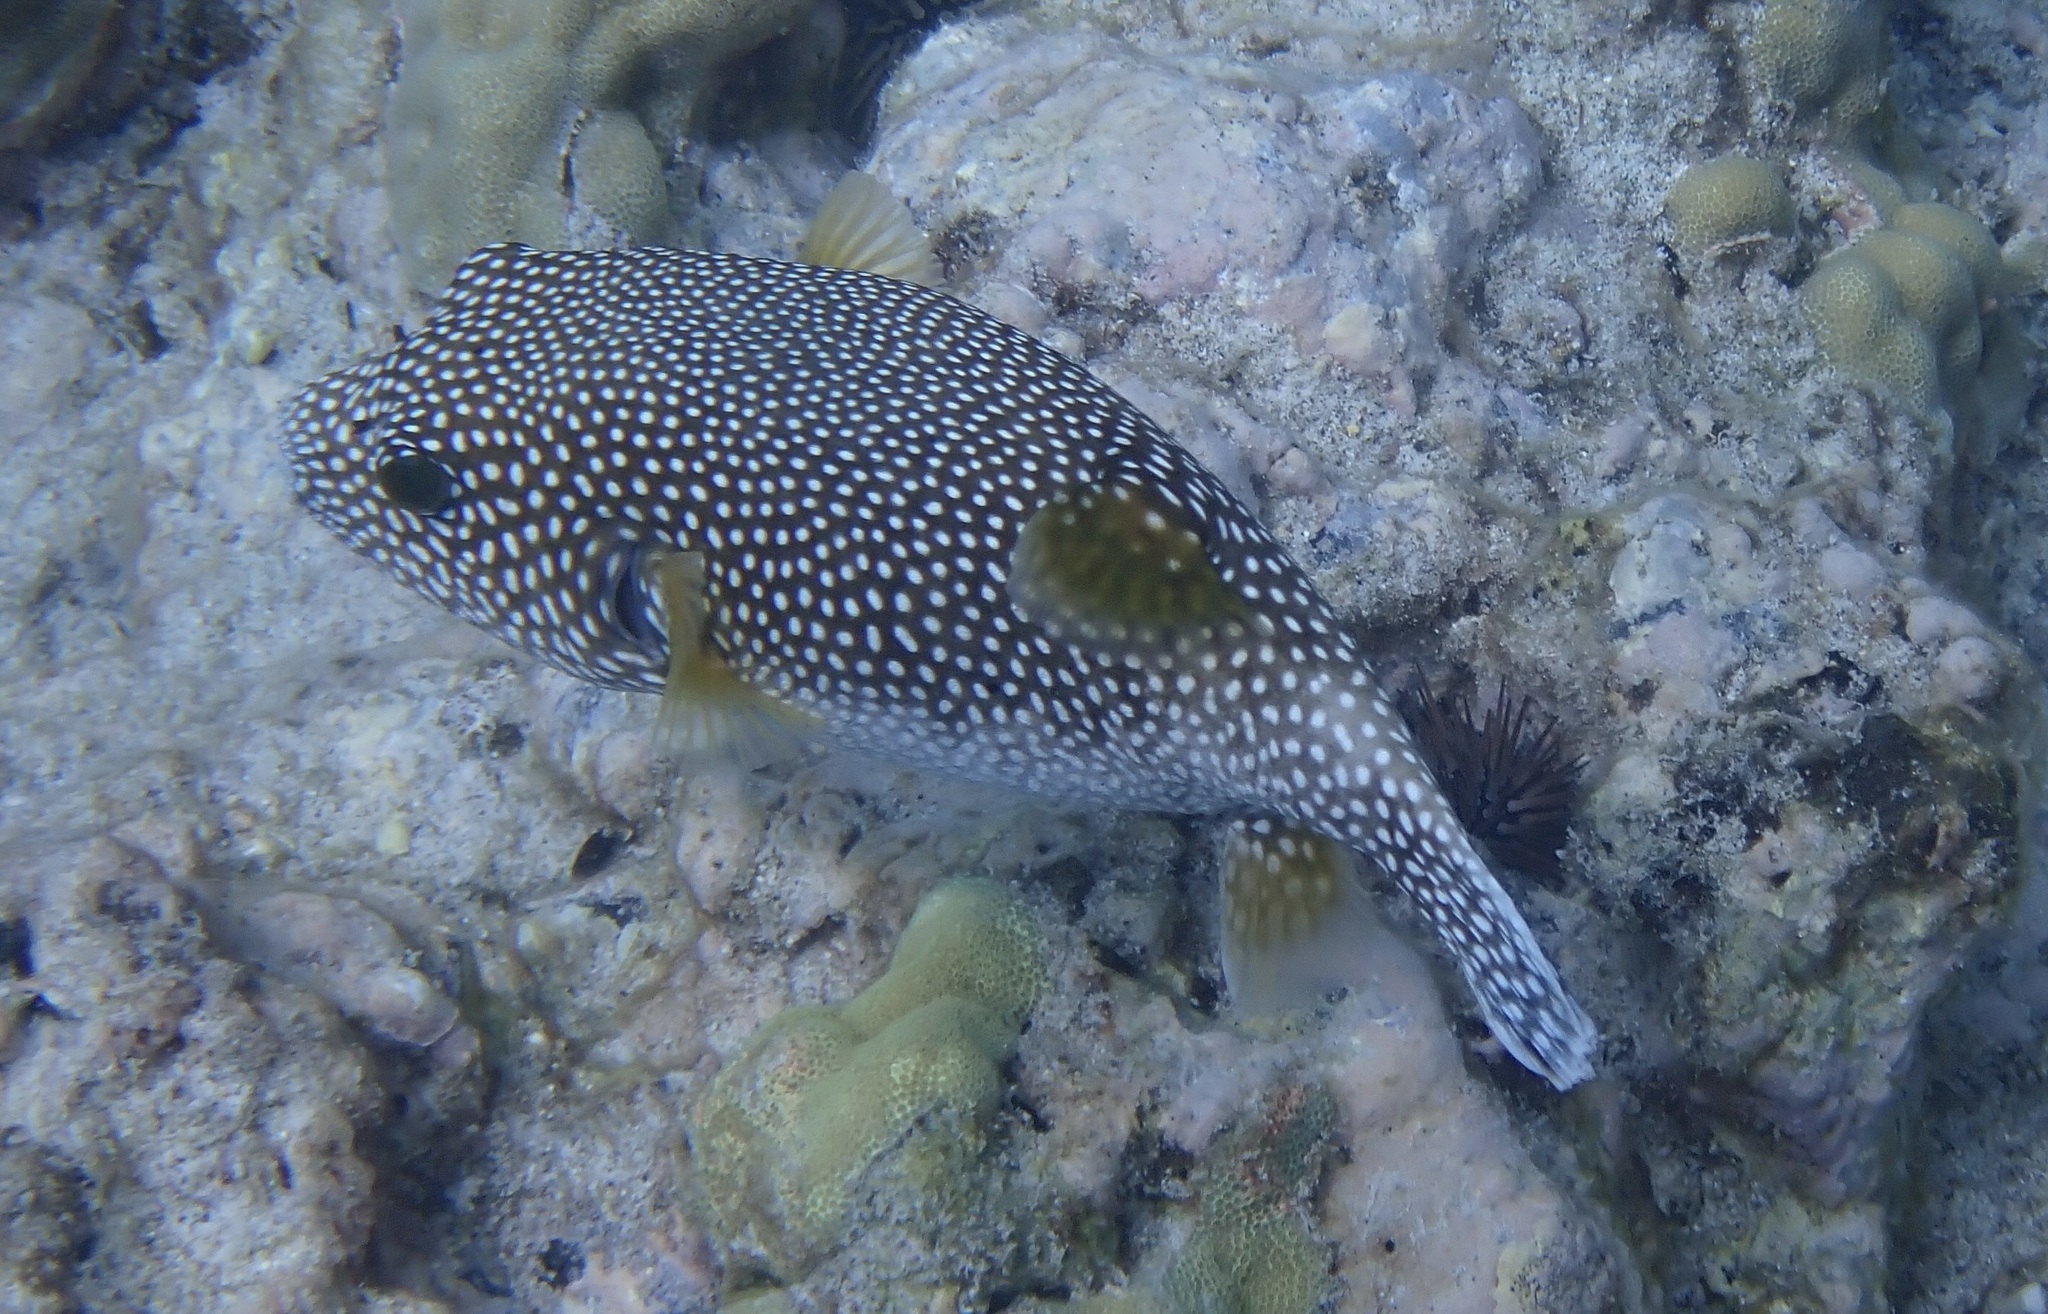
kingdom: Animalia
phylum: Chordata
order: Tetraodontiformes
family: Tetraodontidae
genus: Arothron
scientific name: Arothron meleagris
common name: Guinea-fowl pufferfish
